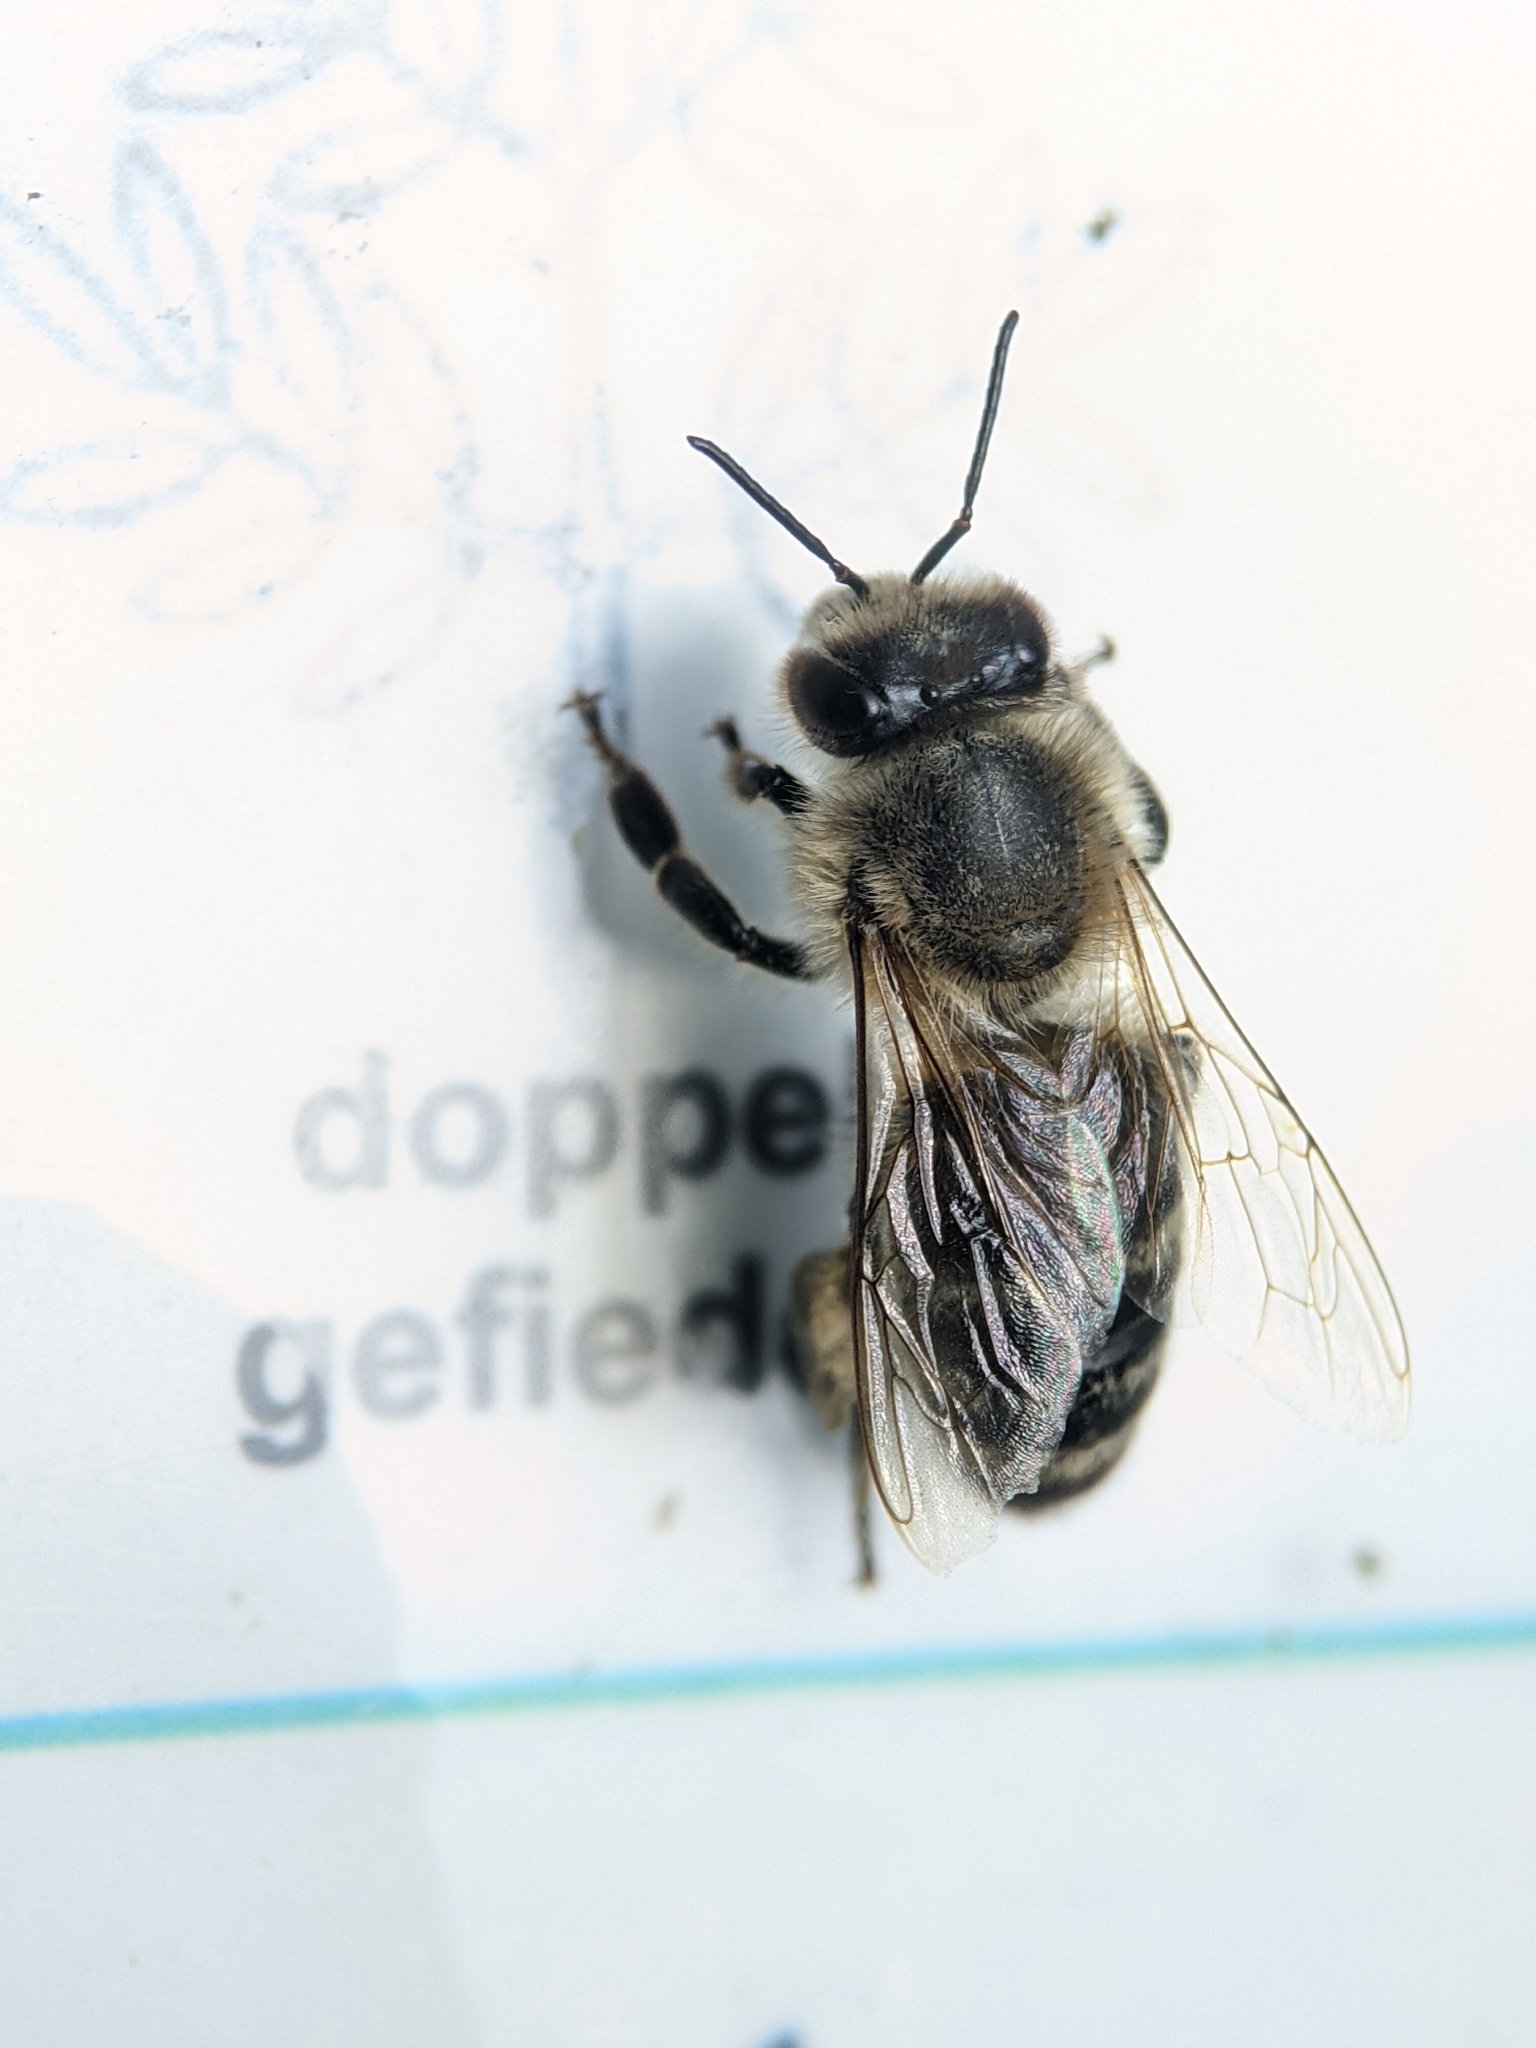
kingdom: Animalia
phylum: Arthropoda
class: Insecta
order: Hymenoptera
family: Apidae
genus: Apis
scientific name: Apis mellifera
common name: Honey bee
